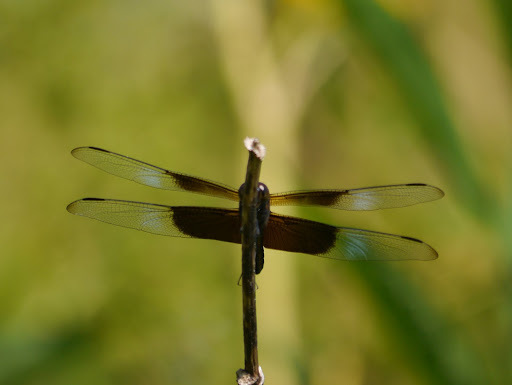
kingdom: Animalia
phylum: Arthropoda
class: Insecta
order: Odonata
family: Libellulidae
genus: Libellula
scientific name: Libellula luctuosa
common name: Widow skimmer
